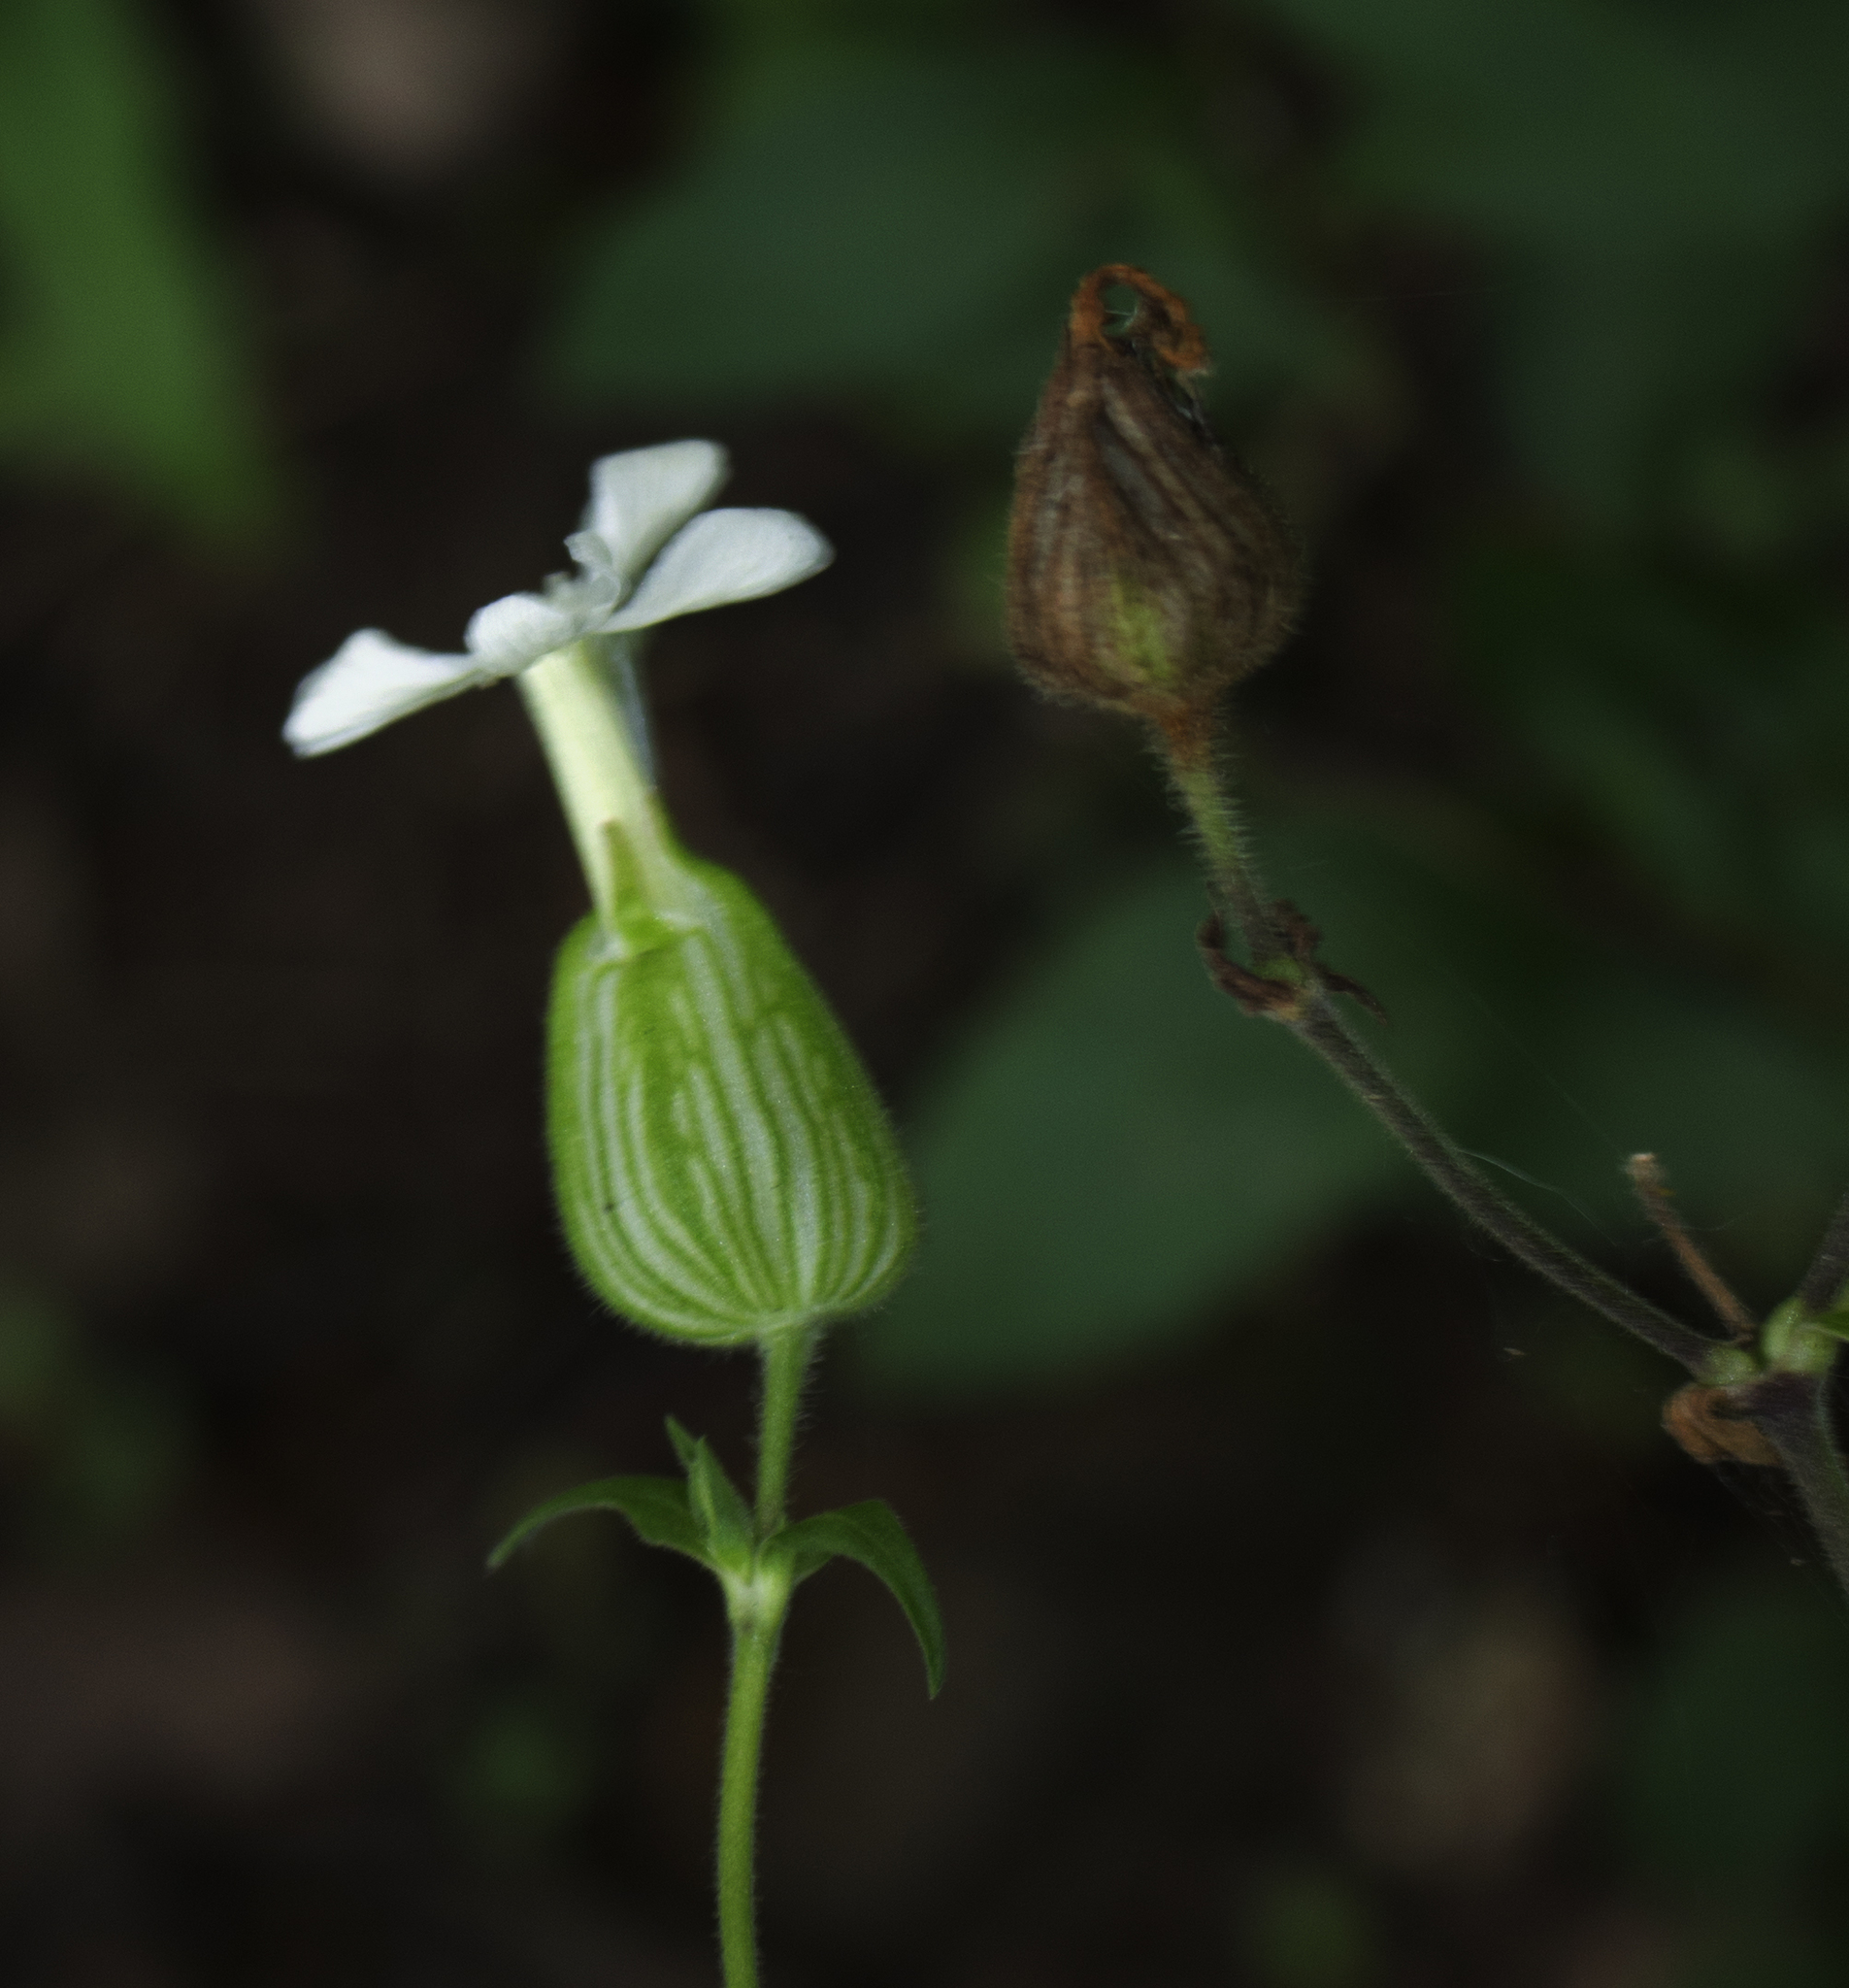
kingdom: Plantae
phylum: Tracheophyta
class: Magnoliopsida
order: Caryophyllales
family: Caryophyllaceae
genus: Silene
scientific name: Silene latifolia
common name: White campion
